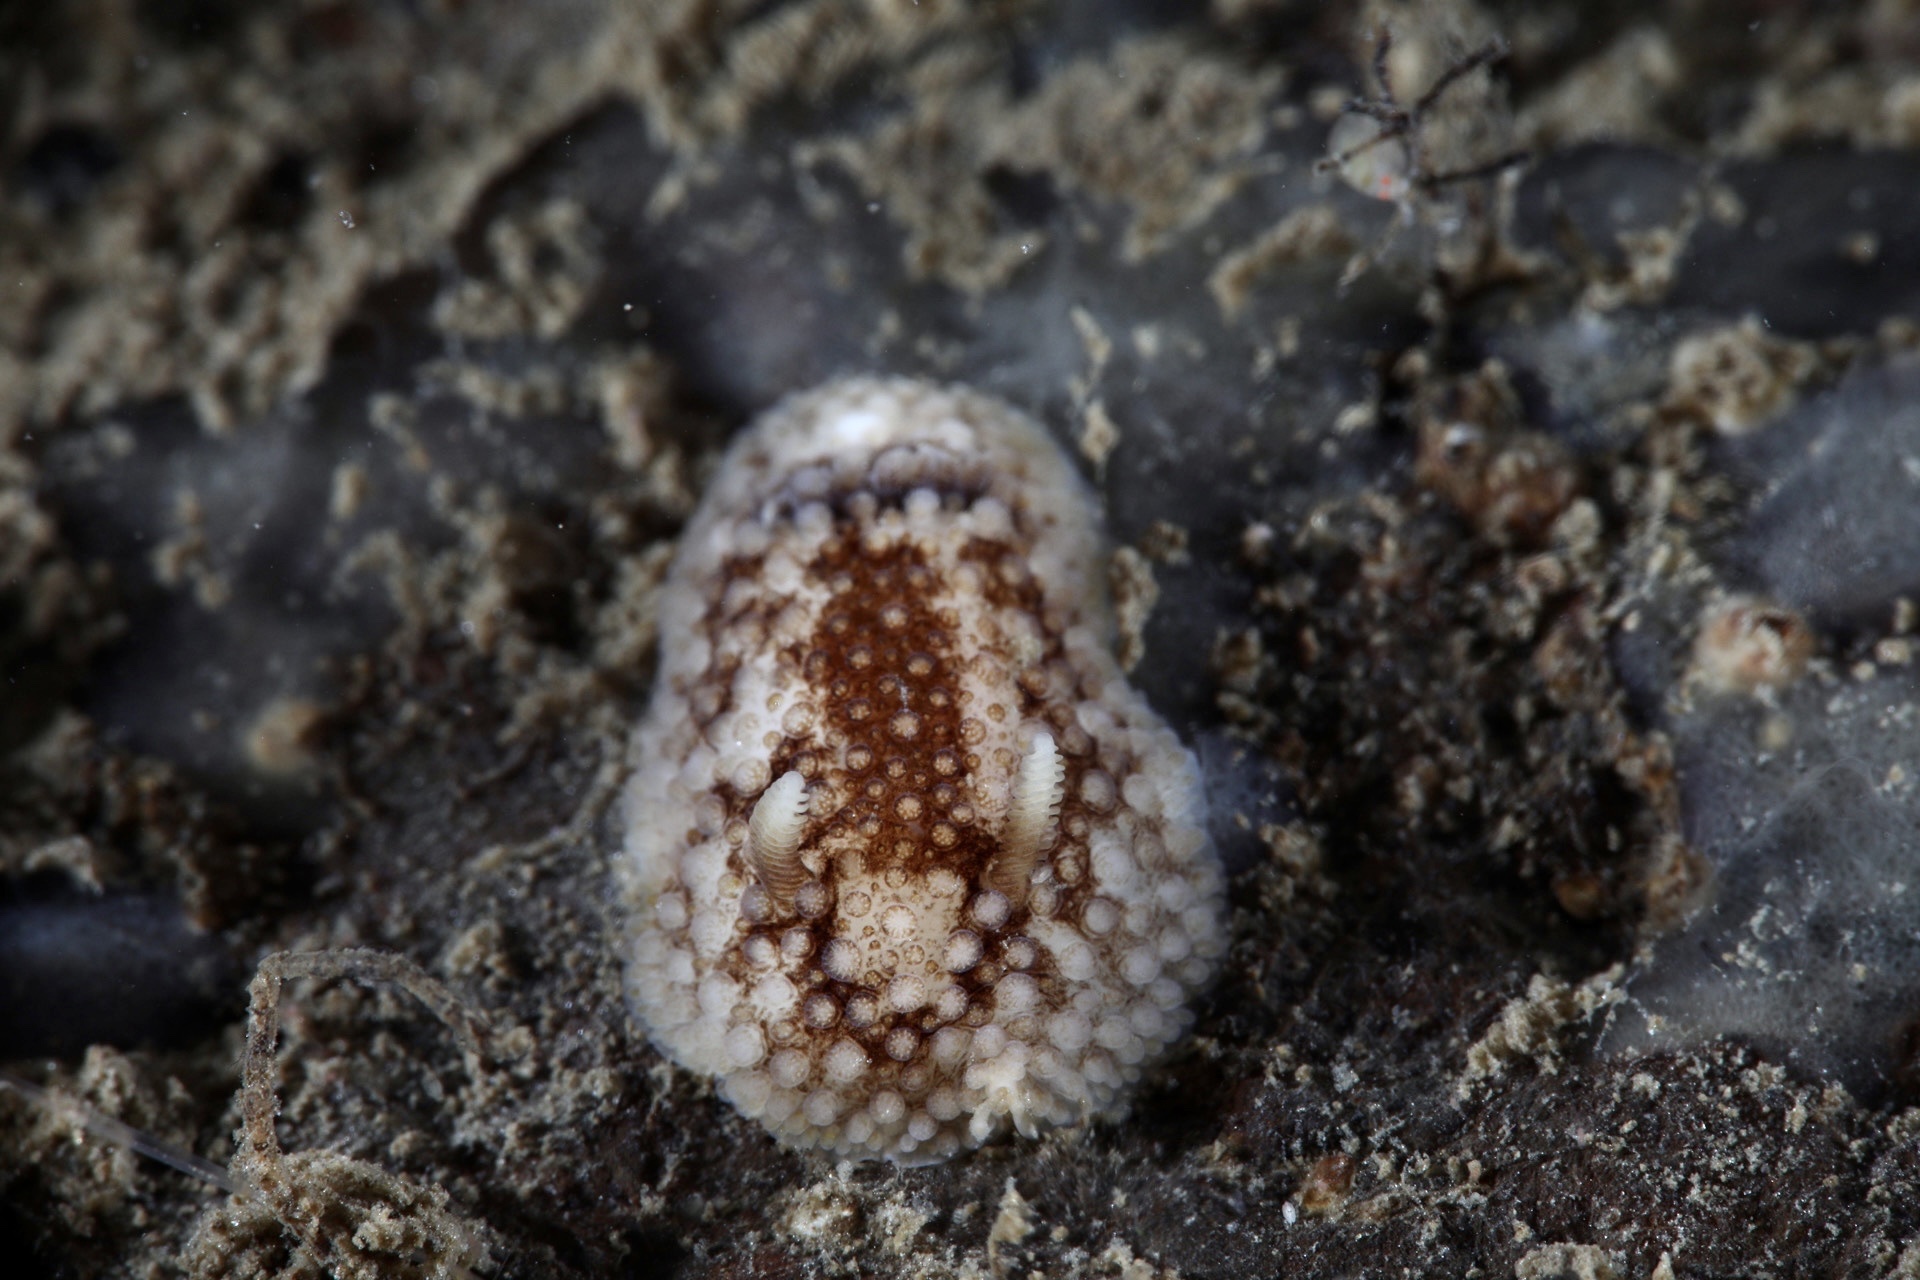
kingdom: Animalia
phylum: Mollusca
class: Gastropoda
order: Nudibranchia
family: Onchidorididae
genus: Onchidoris
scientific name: Onchidoris bilamellata
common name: Barnacle-eating onchidoris
